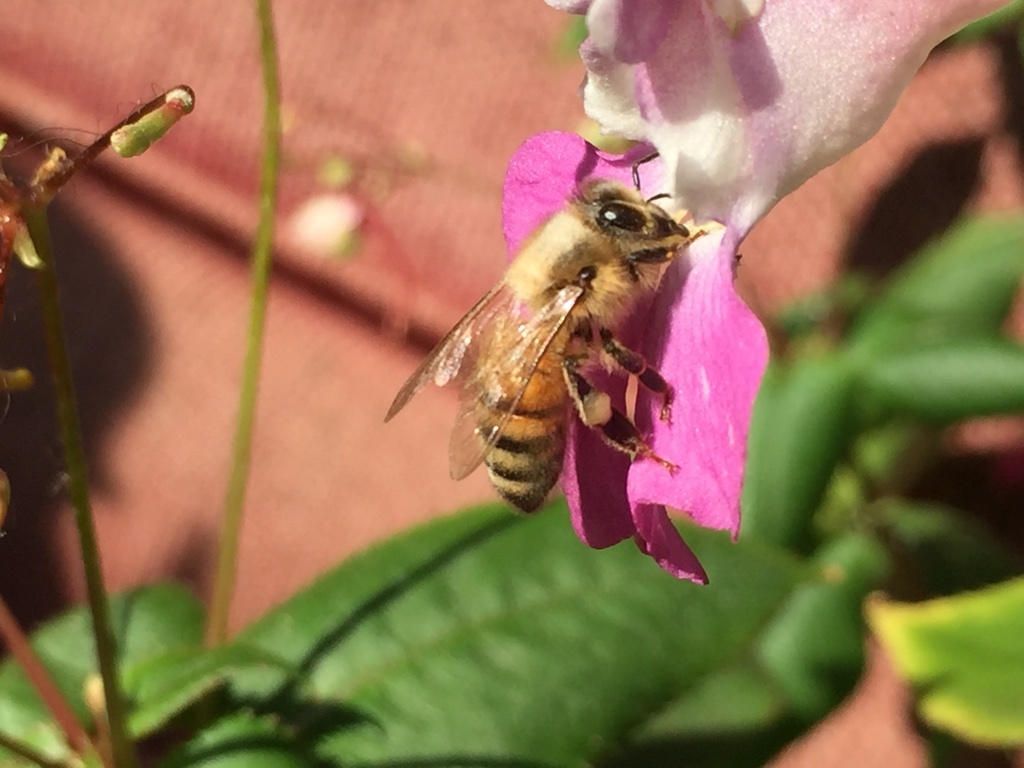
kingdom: Animalia
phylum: Arthropoda
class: Insecta
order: Hymenoptera
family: Apidae
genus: Apis
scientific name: Apis mellifera
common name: Honey bee
